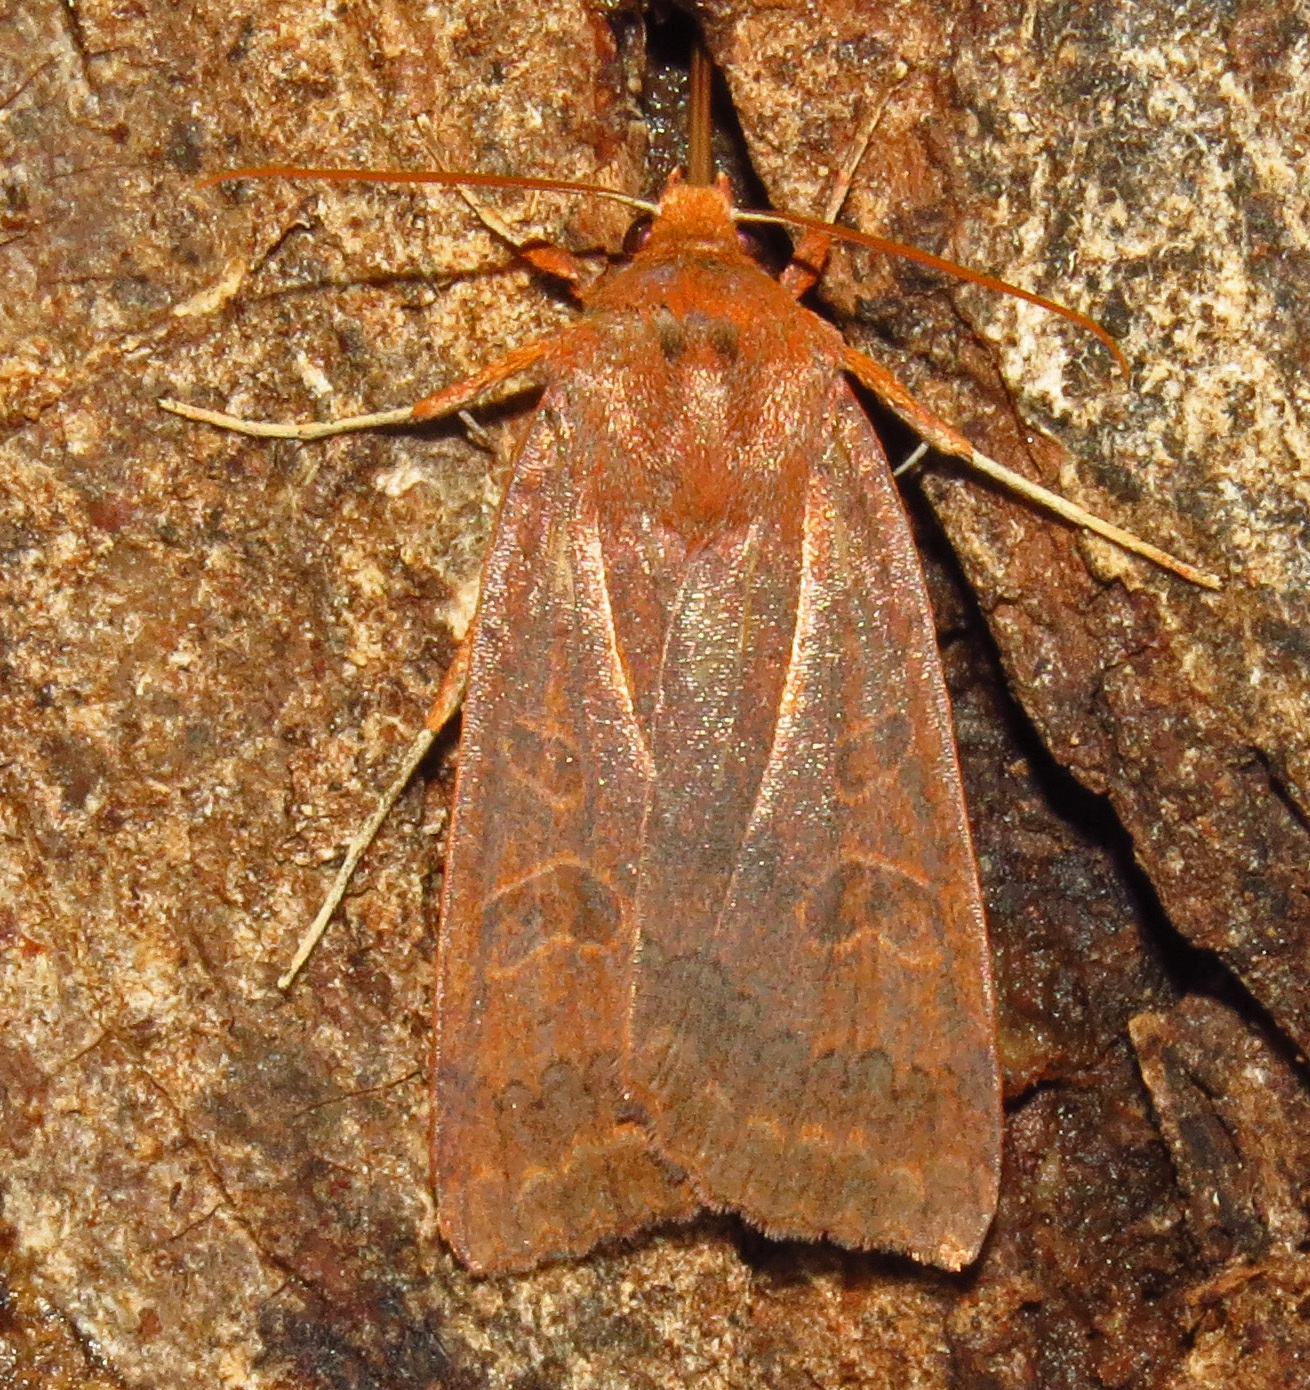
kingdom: Animalia
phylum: Arthropoda
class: Insecta
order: Lepidoptera
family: Noctuidae
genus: Metaxaglaea
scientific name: Metaxaglaea viatica
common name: Roadside sallow
